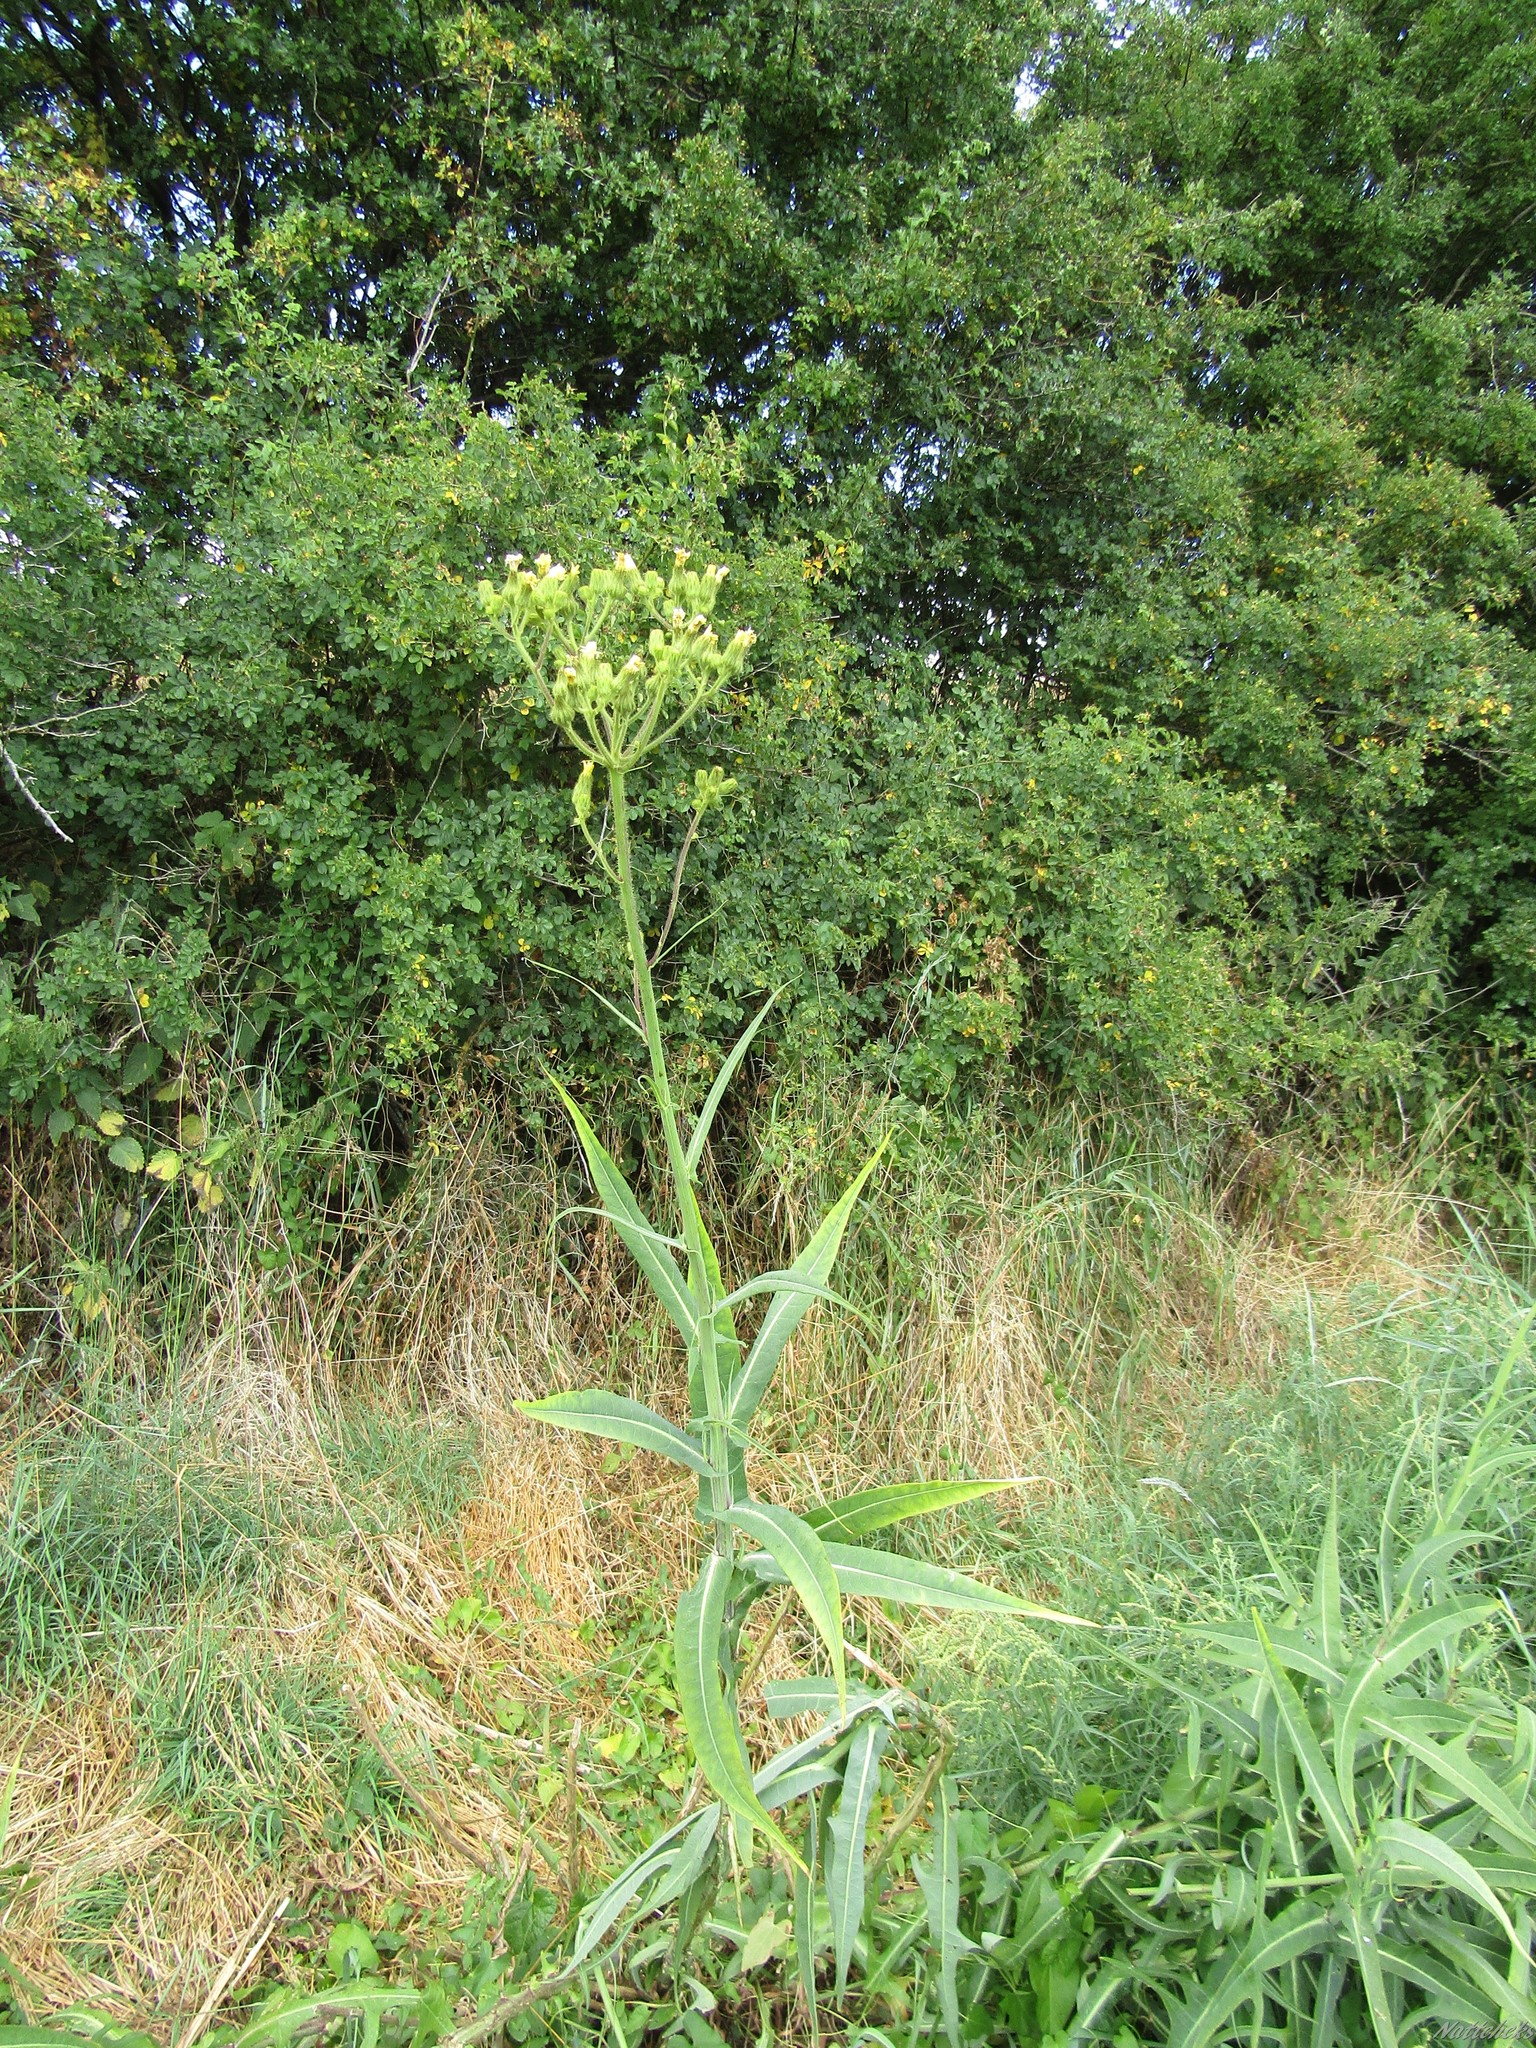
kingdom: Plantae
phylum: Tracheophyta
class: Magnoliopsida
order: Asterales
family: Asteraceae
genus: Sonchus
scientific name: Sonchus palustris
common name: Marsh sow-thistle
